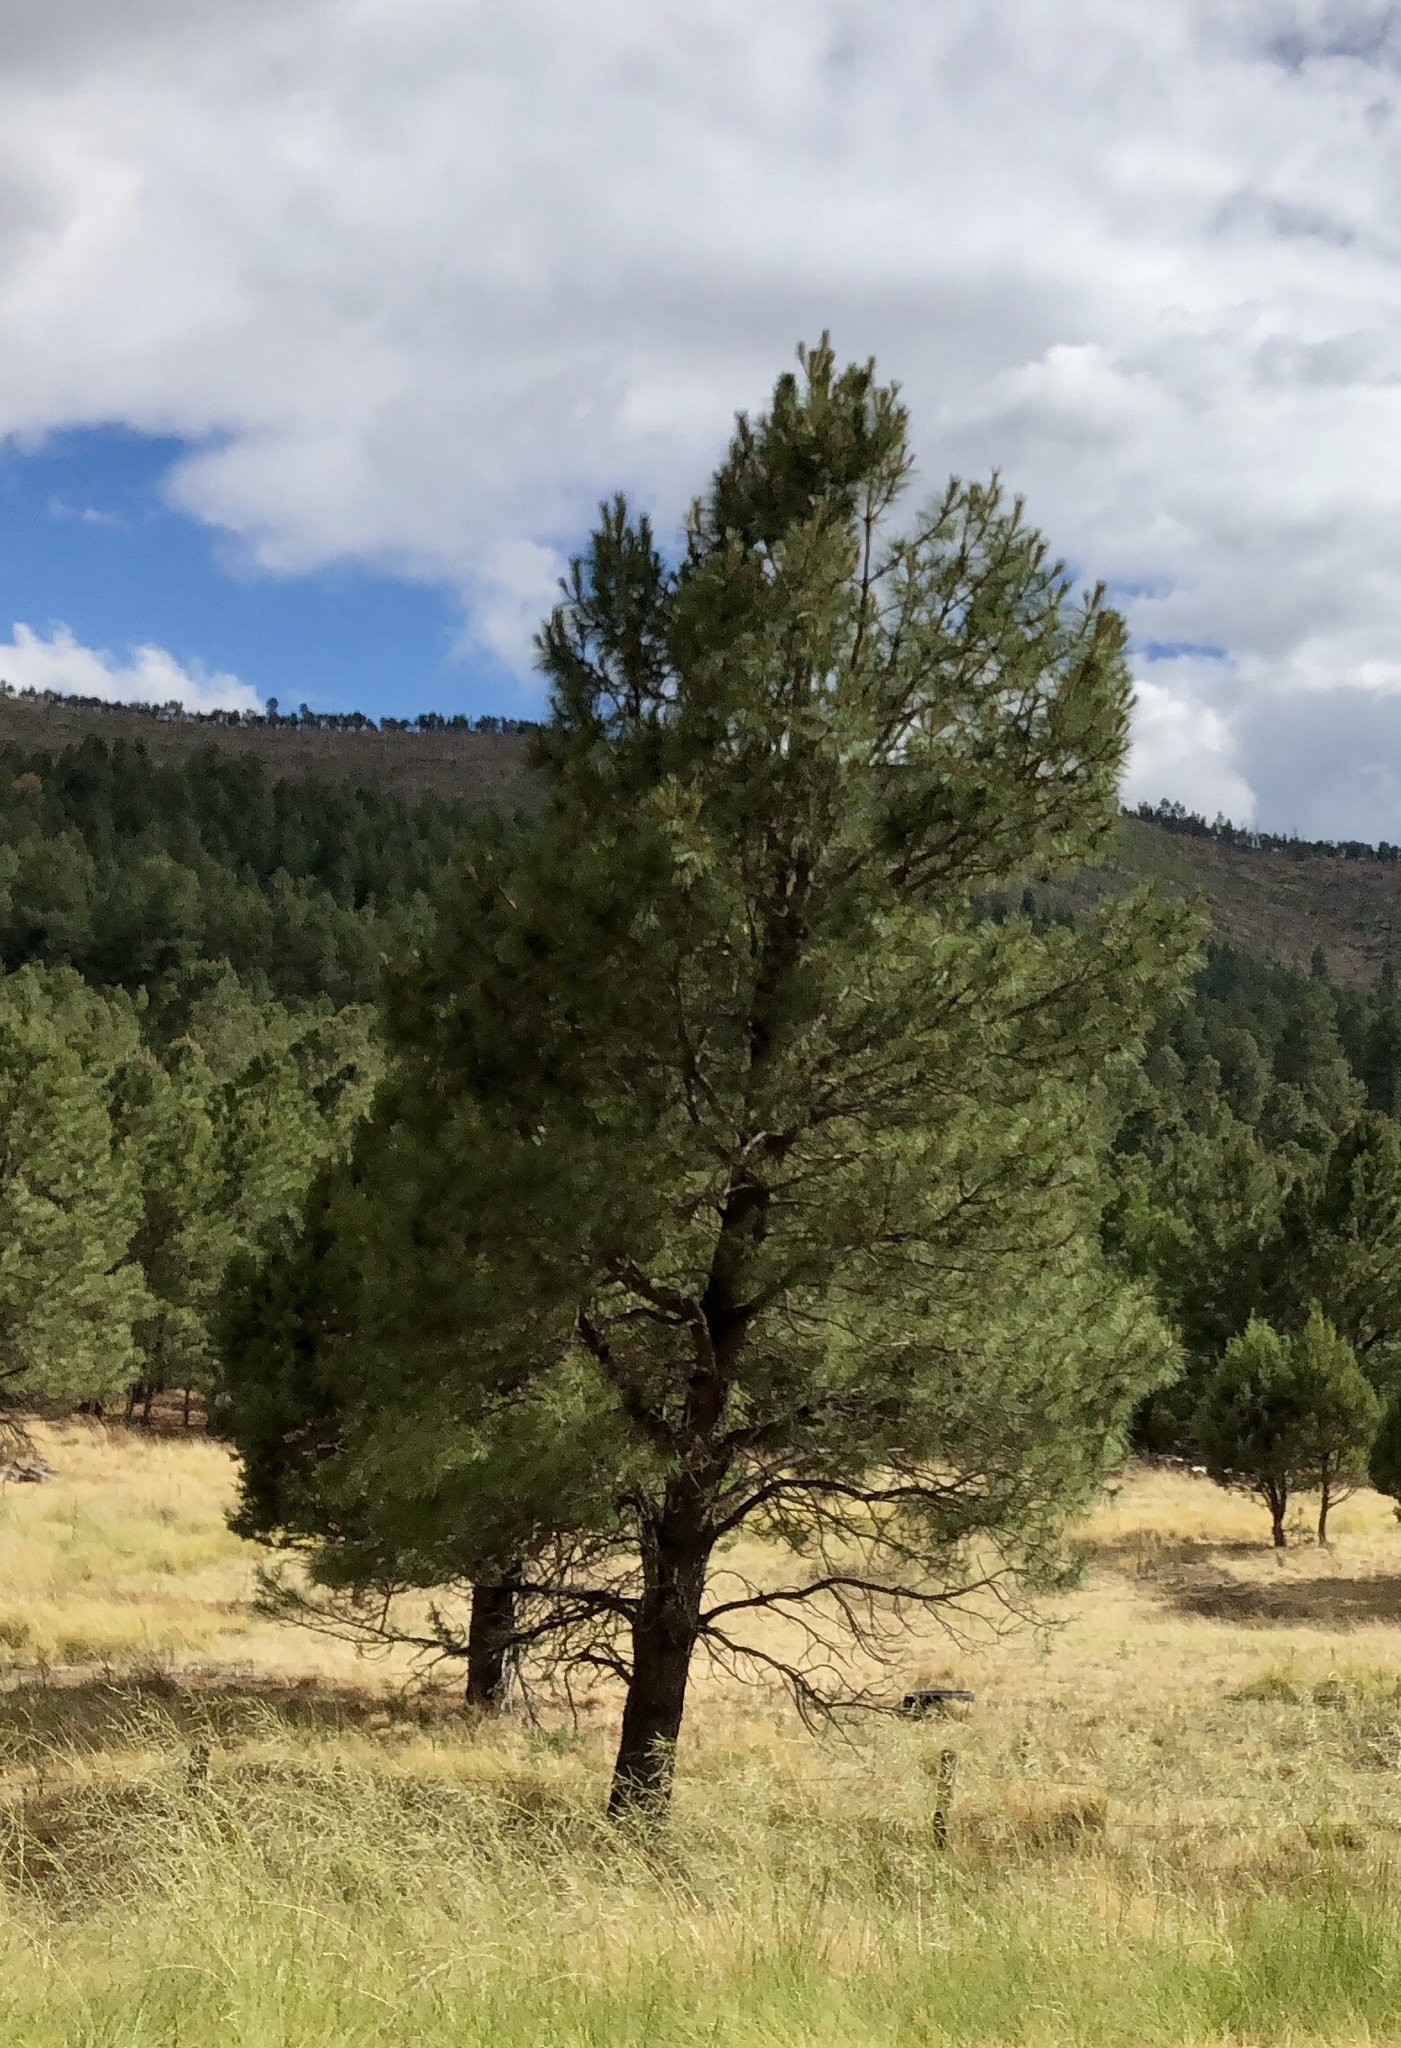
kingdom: Plantae
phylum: Tracheophyta
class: Pinopsida
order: Pinales
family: Pinaceae
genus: Pinus
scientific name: Pinus ponderosa
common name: Western yellow-pine
